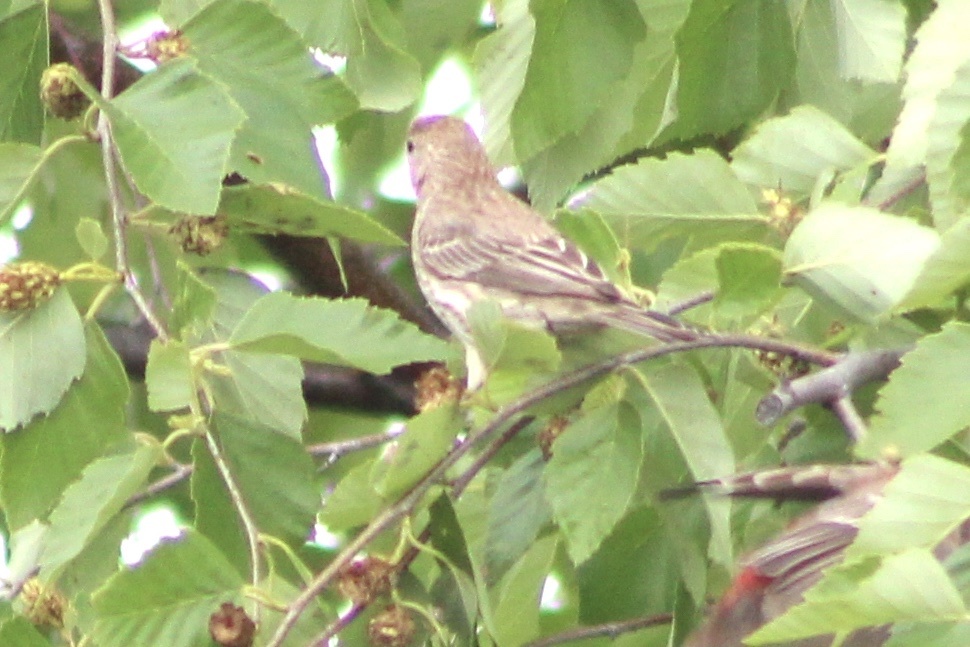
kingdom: Animalia
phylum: Chordata
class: Aves
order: Passeriformes
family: Fringillidae
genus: Haemorhous
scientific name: Haemorhous mexicanus
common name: House finch
